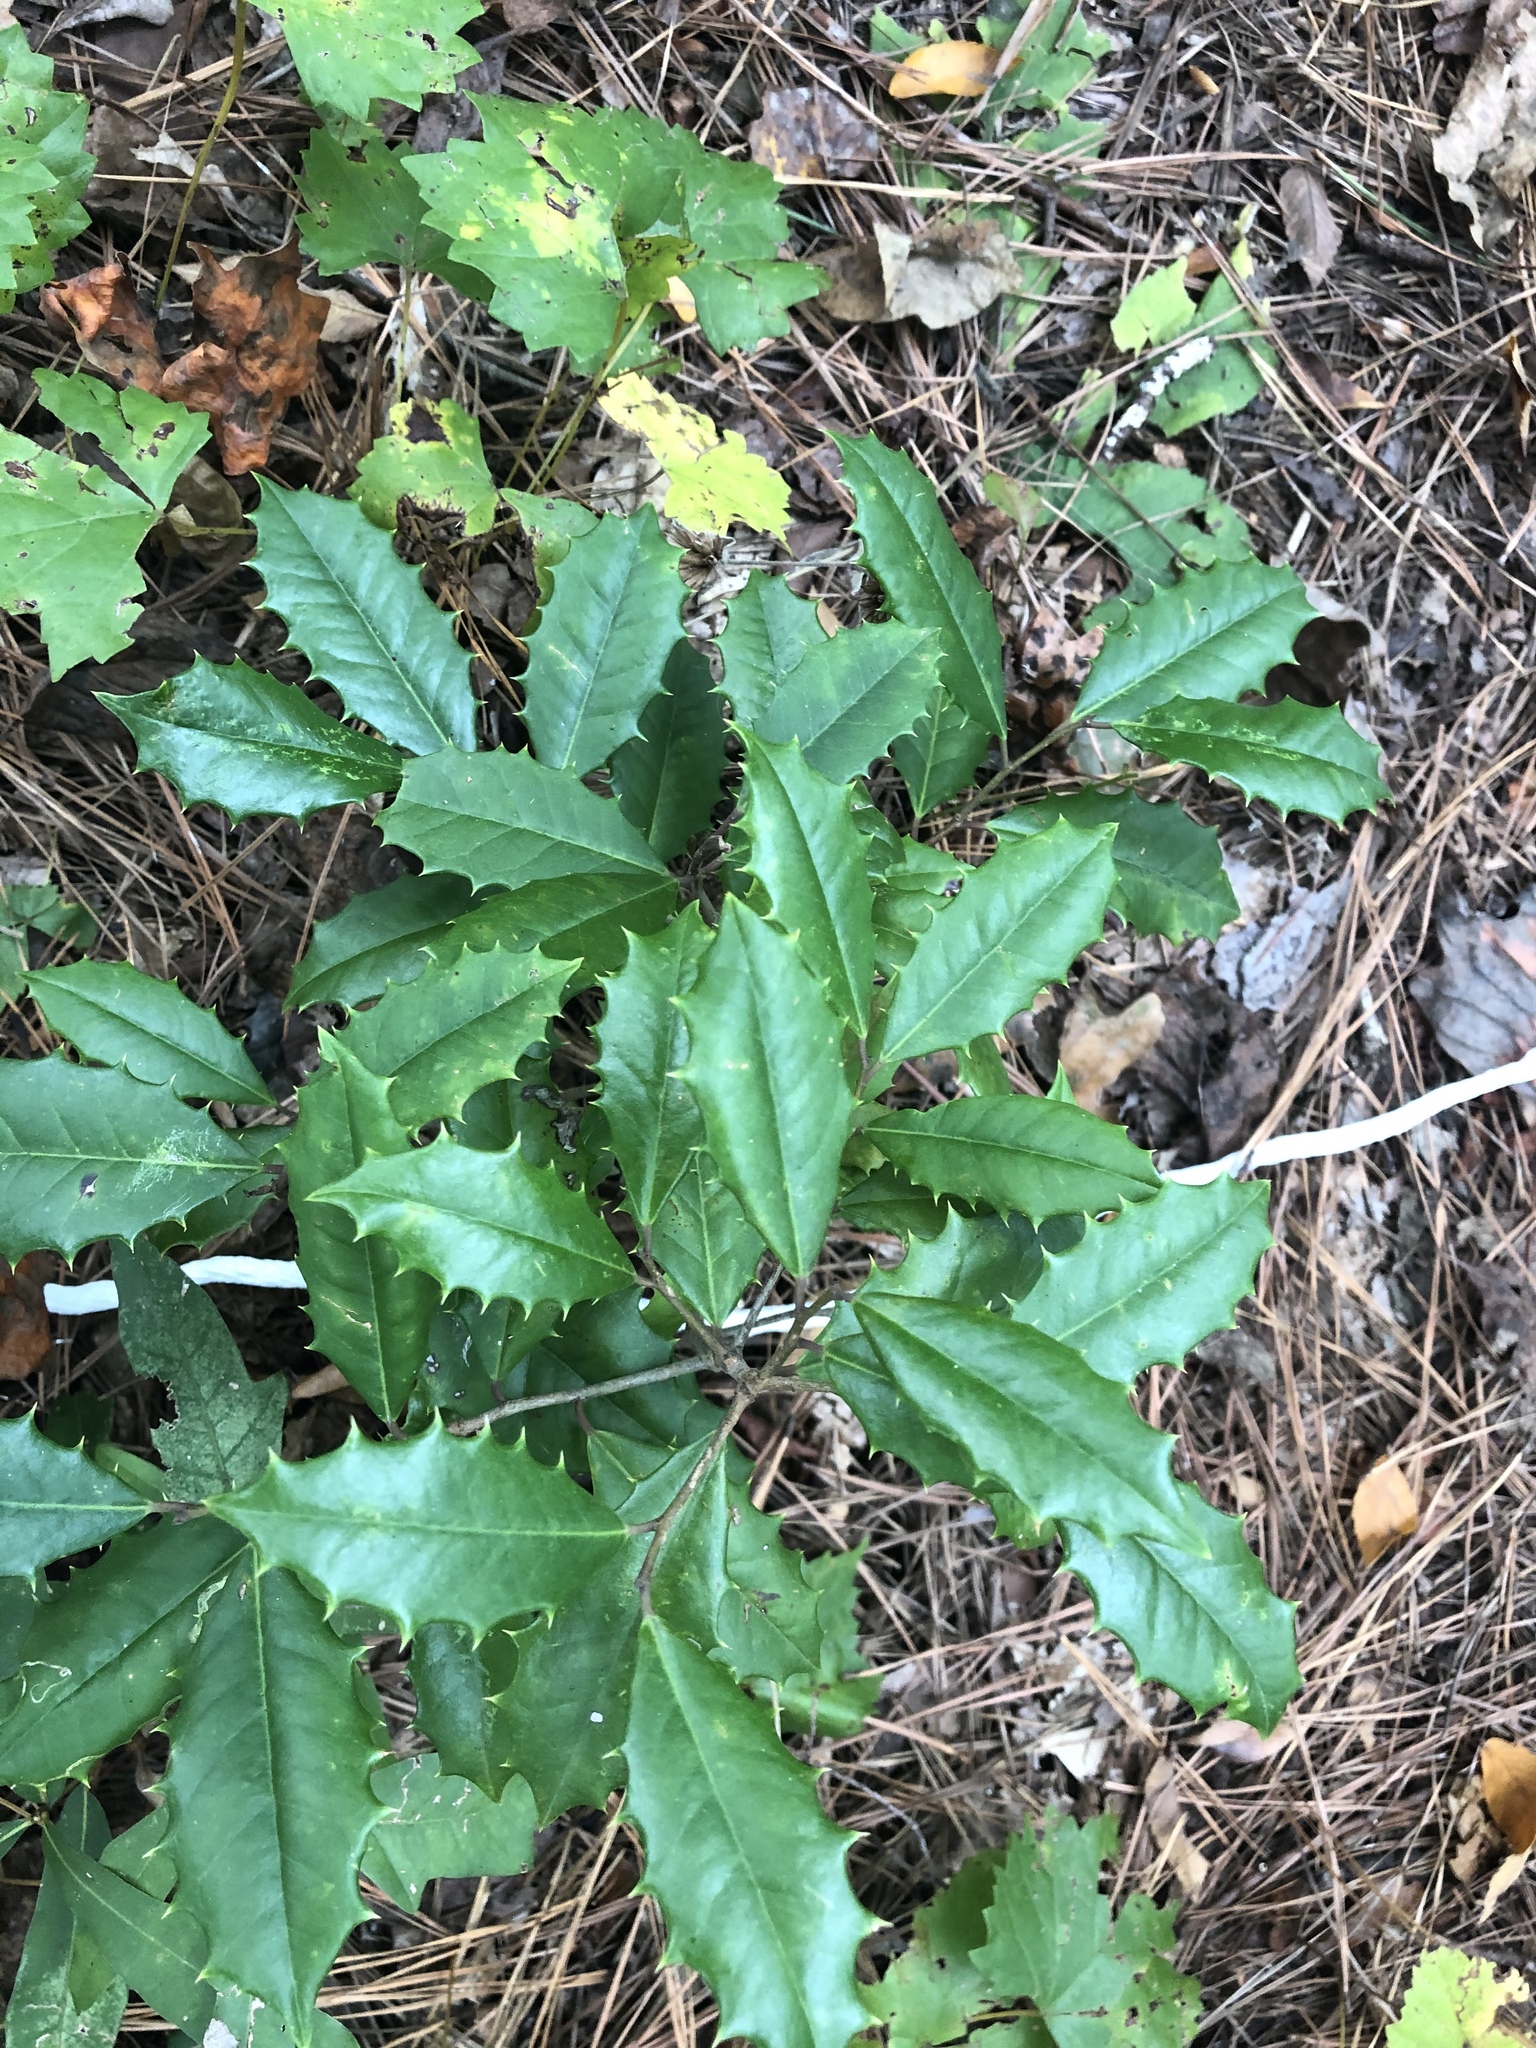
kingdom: Plantae
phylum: Tracheophyta
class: Magnoliopsida
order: Aquifoliales
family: Aquifoliaceae
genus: Ilex
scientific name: Ilex opaca
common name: American holly
